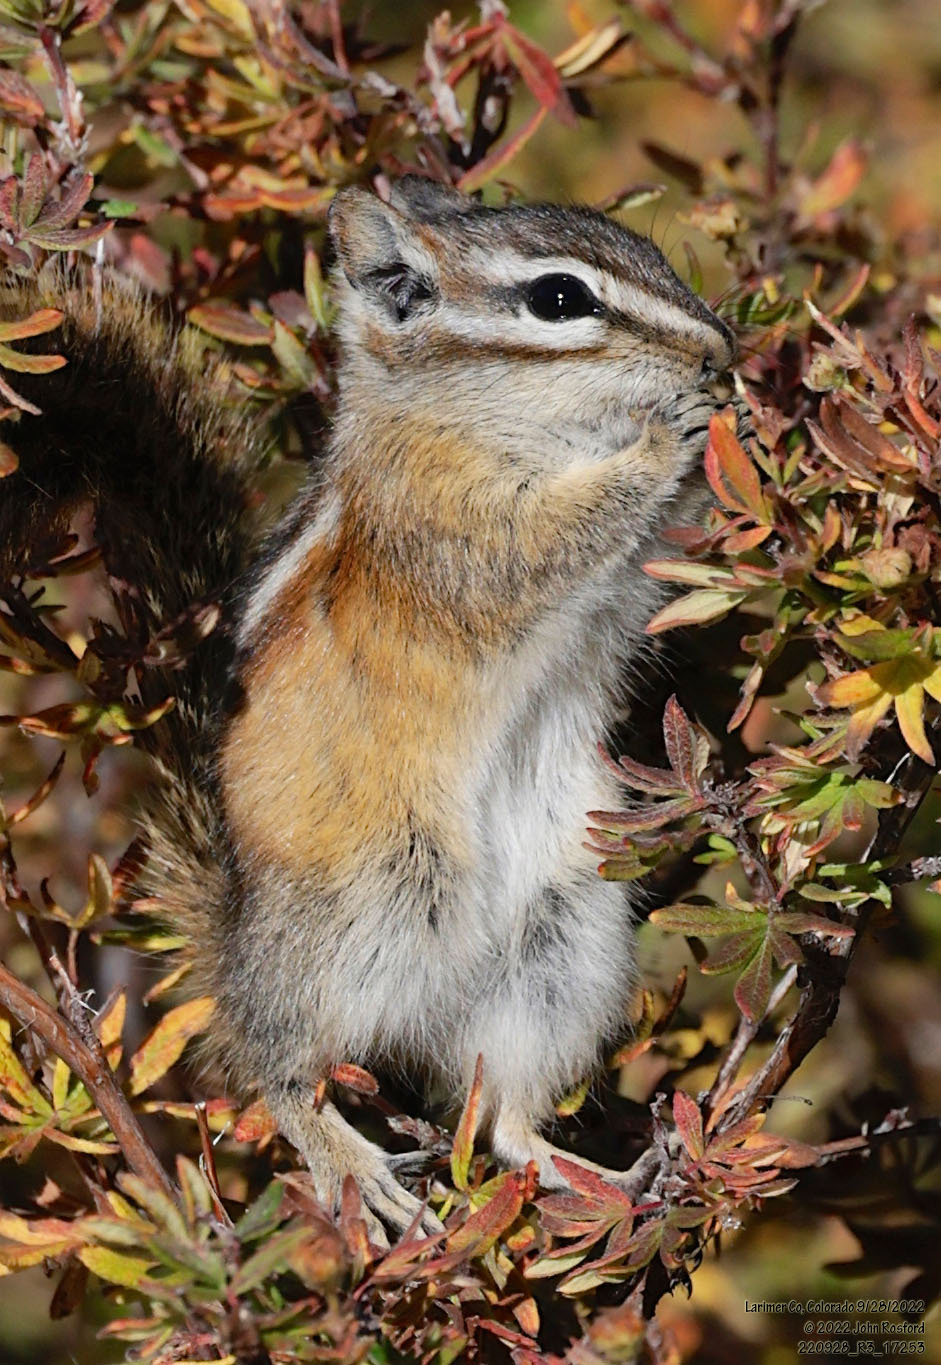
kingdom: Animalia
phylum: Chordata
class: Mammalia
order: Rodentia
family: Sciuridae
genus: Tamias
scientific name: Tamias minimus
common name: Least chipmunk
